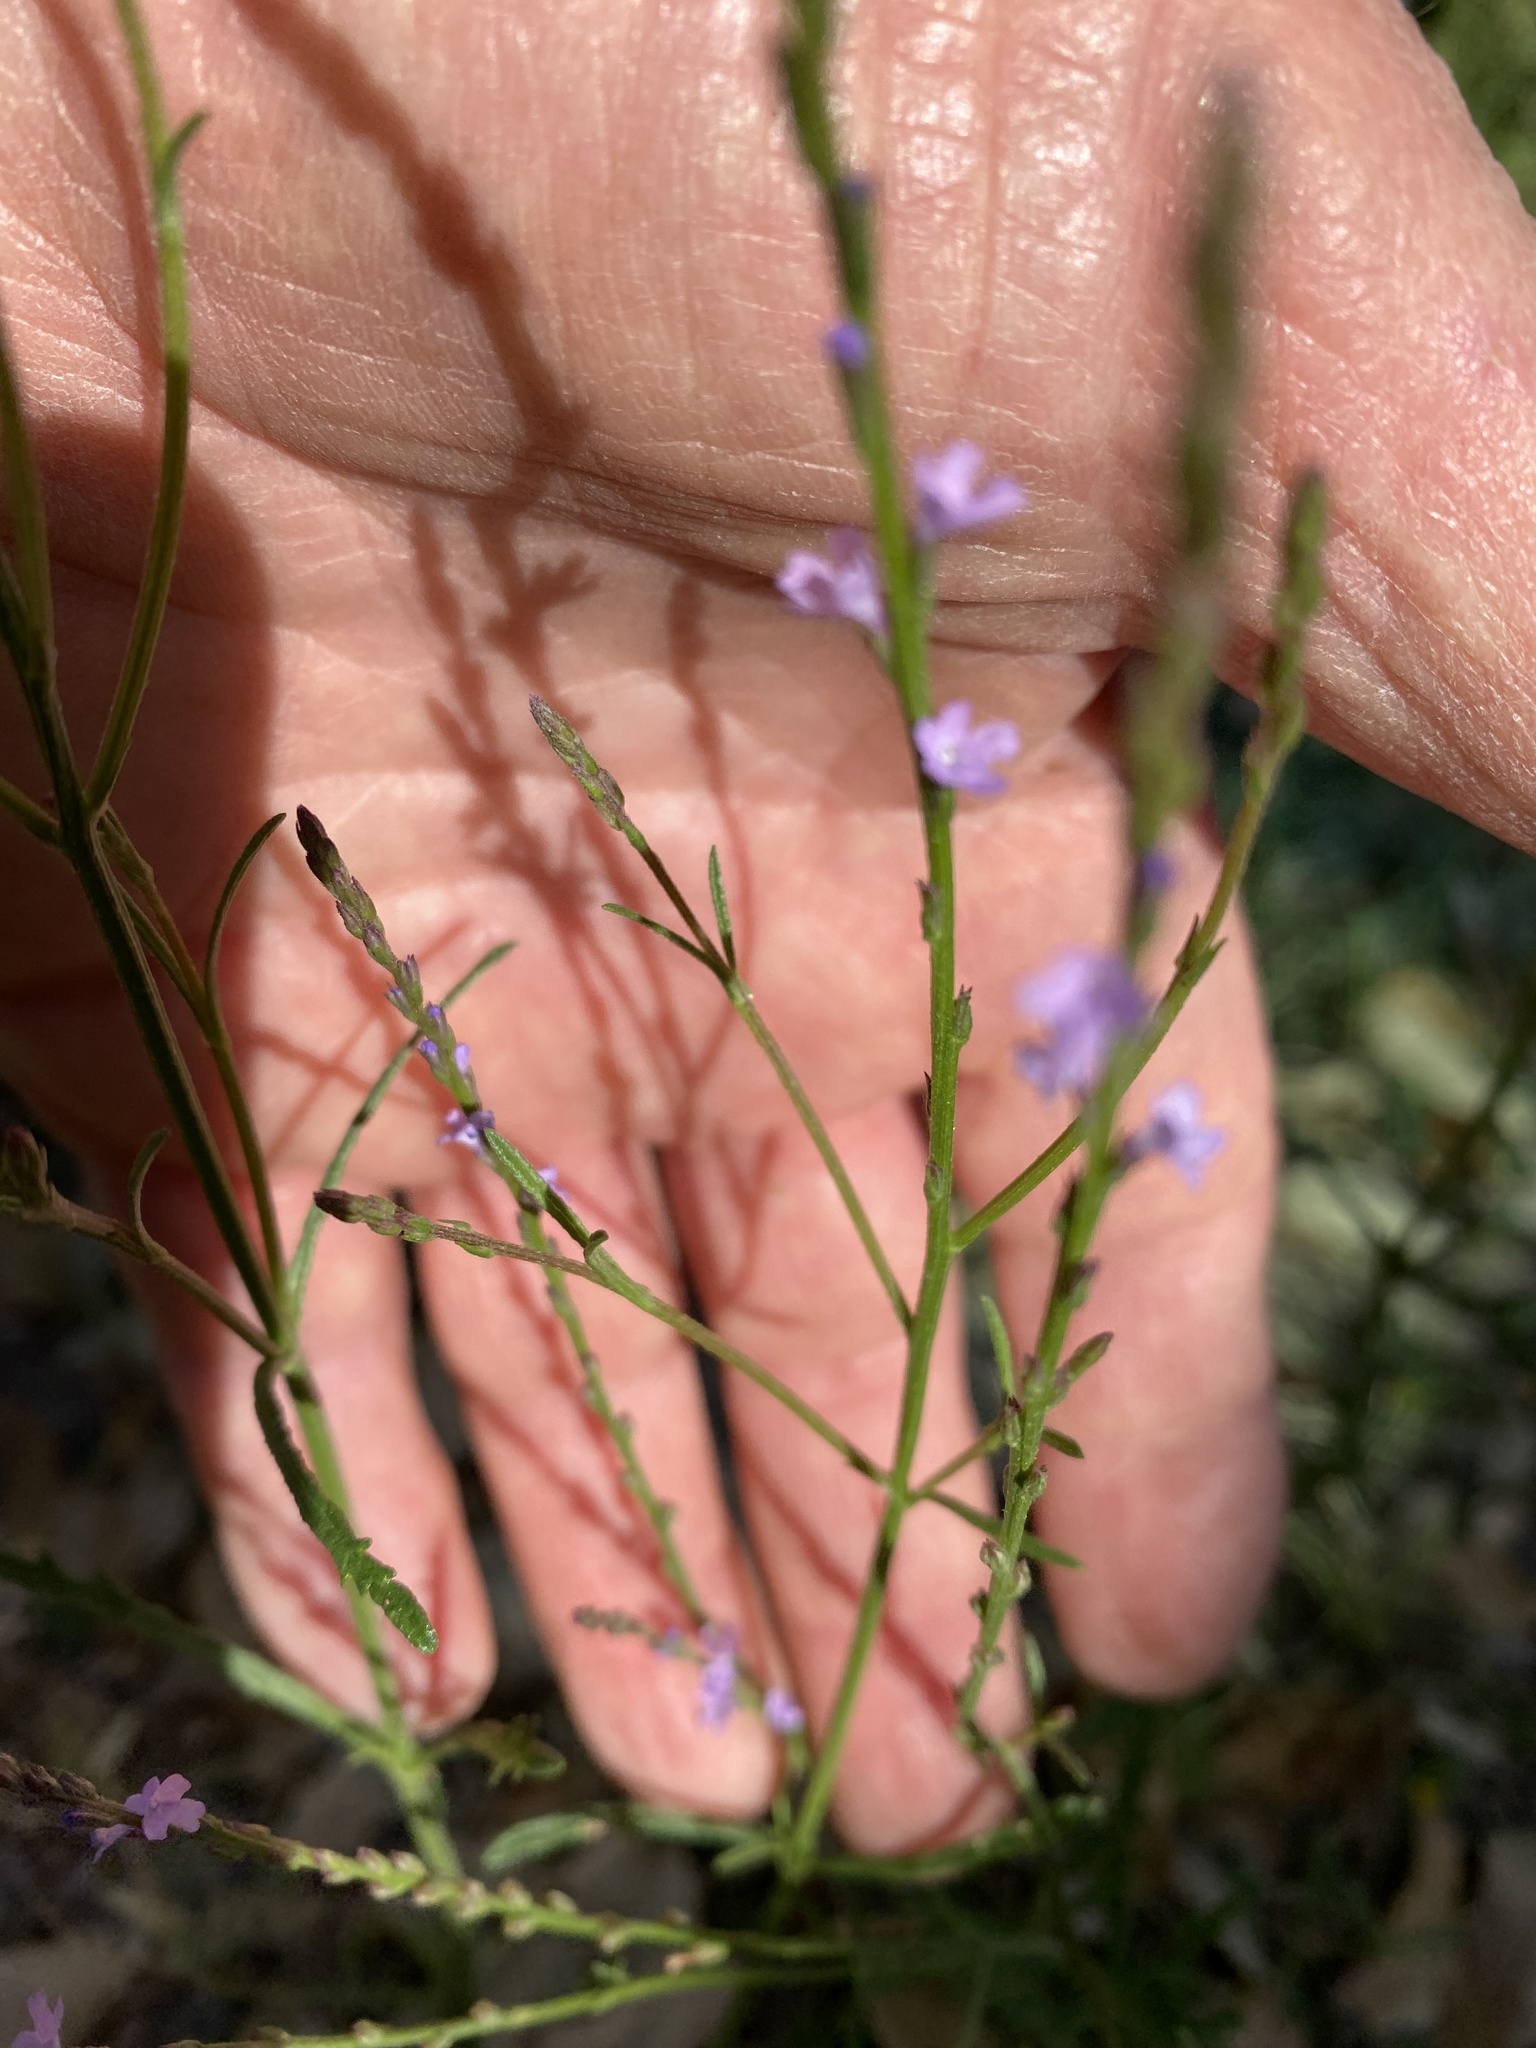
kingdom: Plantae
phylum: Tracheophyta
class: Magnoliopsida
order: Lamiales
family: Verbenaceae
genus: Verbena
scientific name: Verbena halei
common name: Texas vervain
